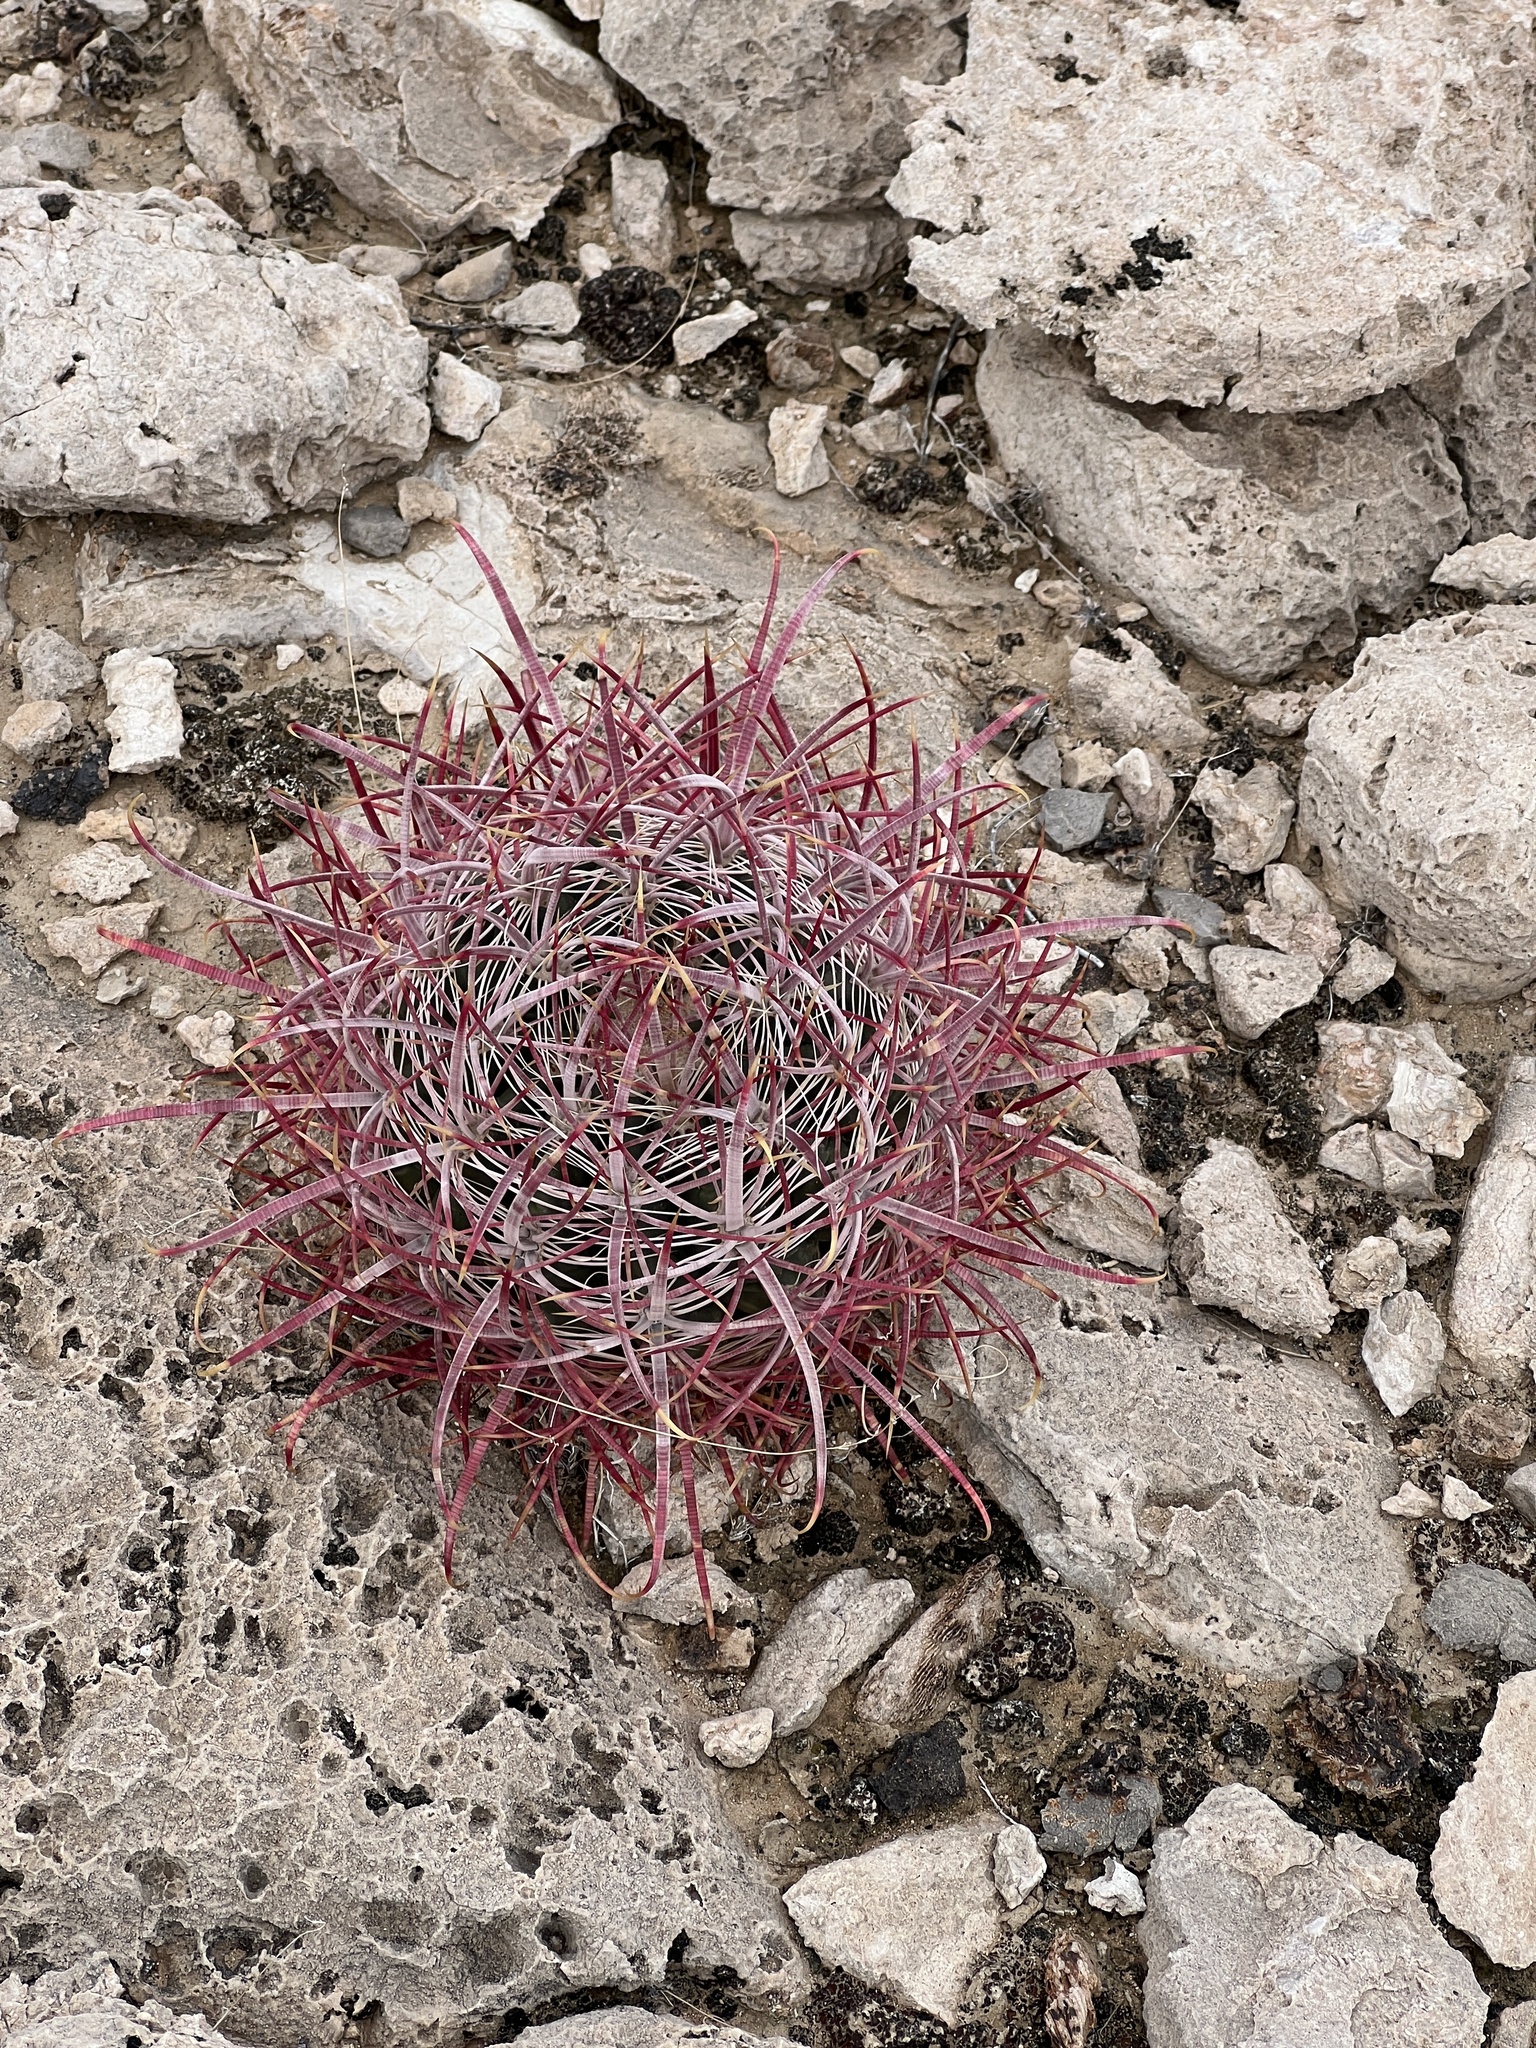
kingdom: Plantae
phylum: Tracheophyta
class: Magnoliopsida
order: Caryophyllales
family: Cactaceae
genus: Ferocactus
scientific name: Ferocactus cylindraceus
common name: California barrel cactus
